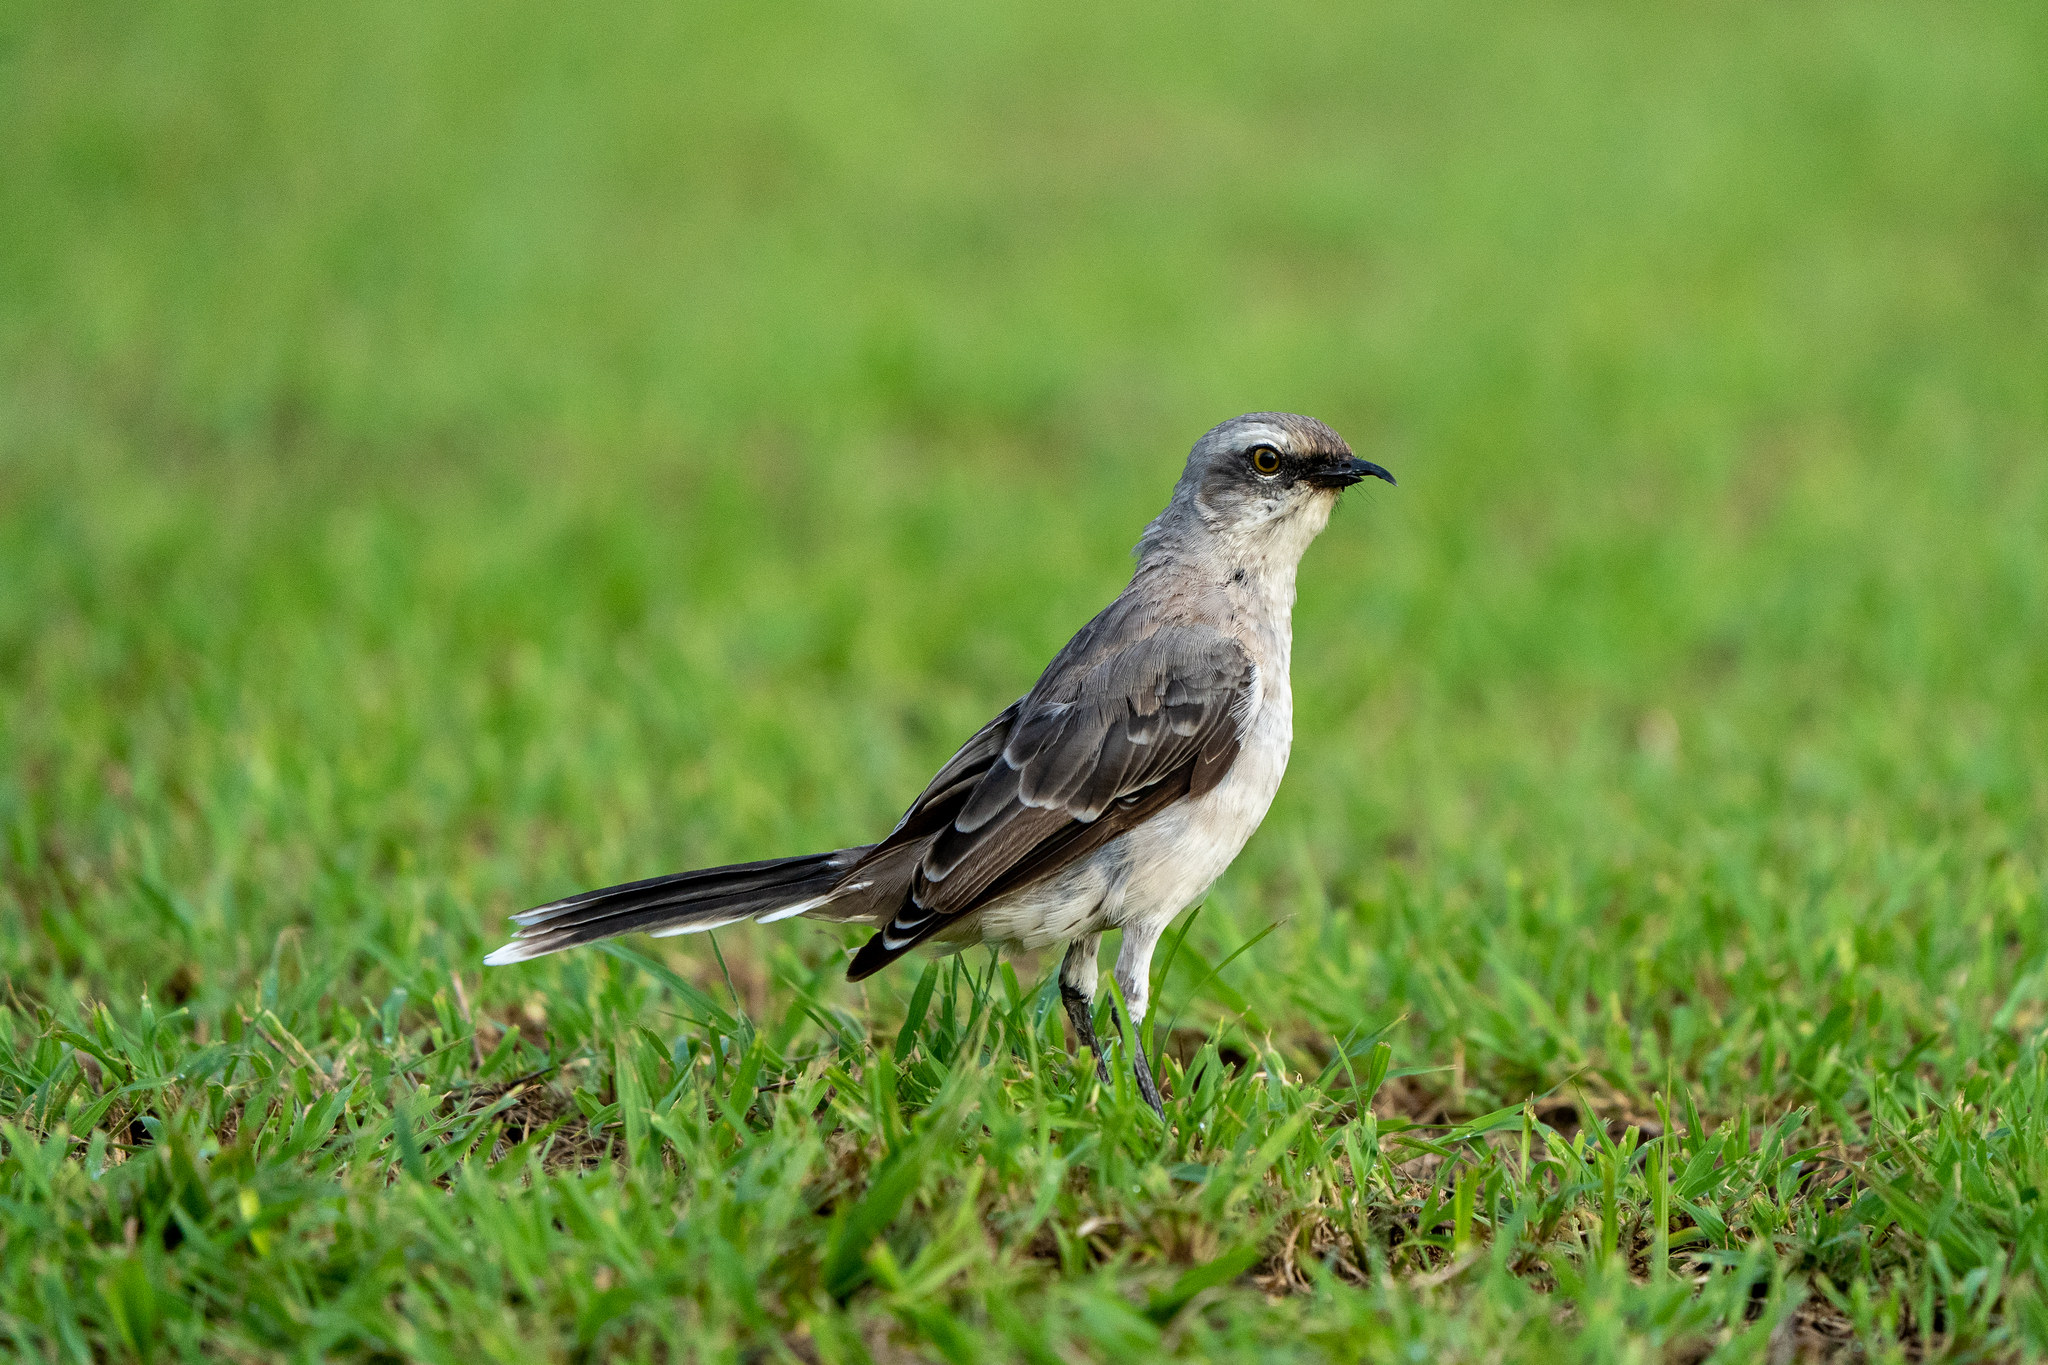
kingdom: Animalia
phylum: Chordata
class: Aves
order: Passeriformes
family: Mimidae
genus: Mimus
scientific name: Mimus gilvus
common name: Tropical mockingbird
